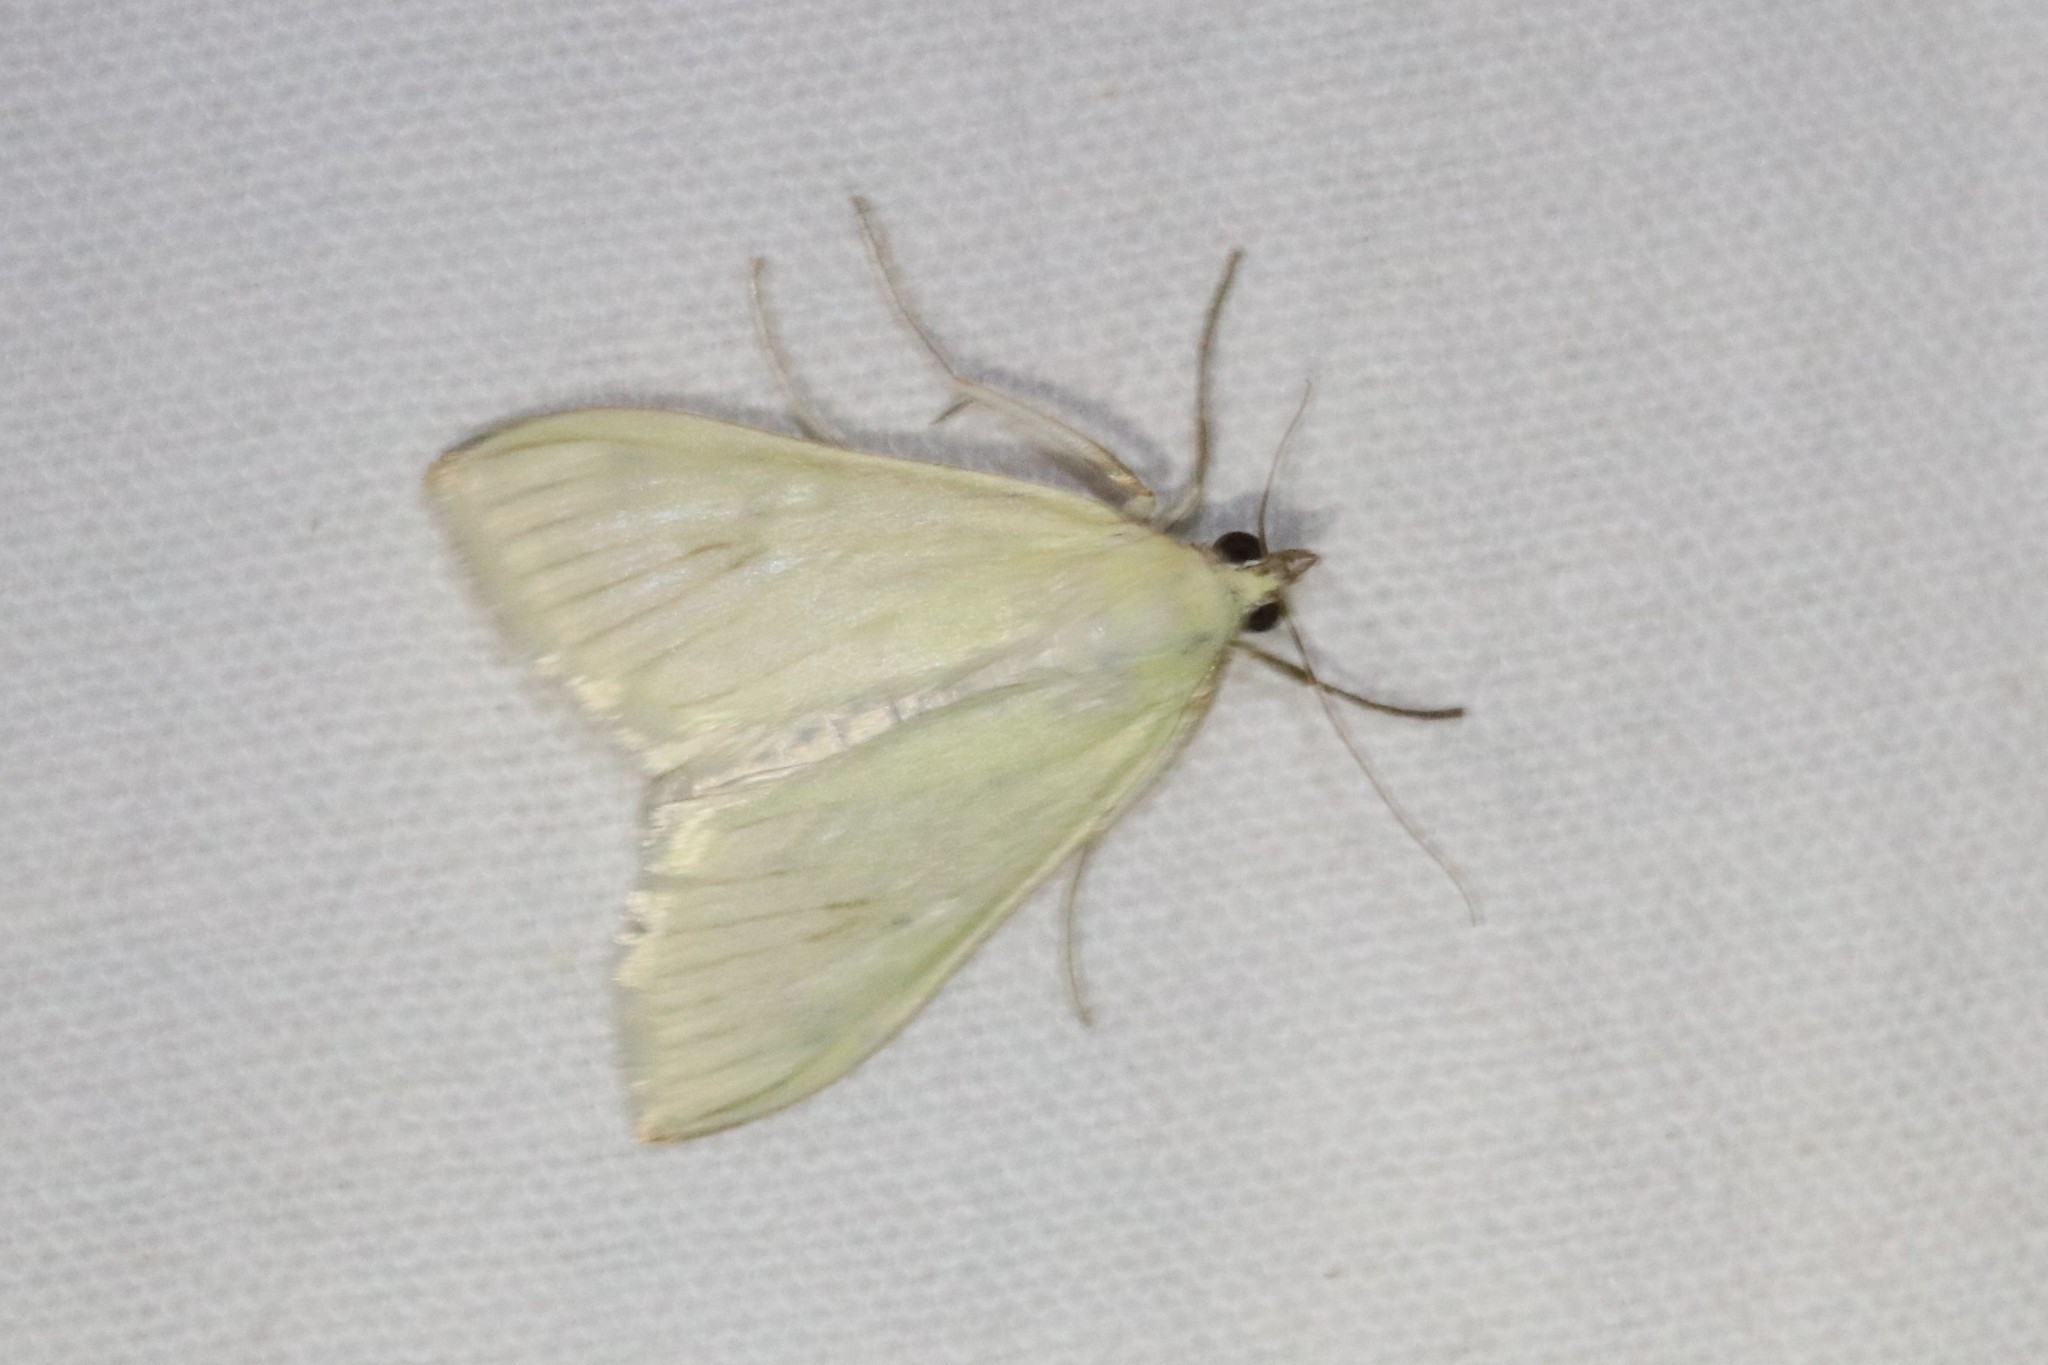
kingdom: Animalia
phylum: Arthropoda
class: Insecta
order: Lepidoptera
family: Crambidae
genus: Sitochroa
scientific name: Sitochroa palealis
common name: Greenish-yellow sitochroa moth
